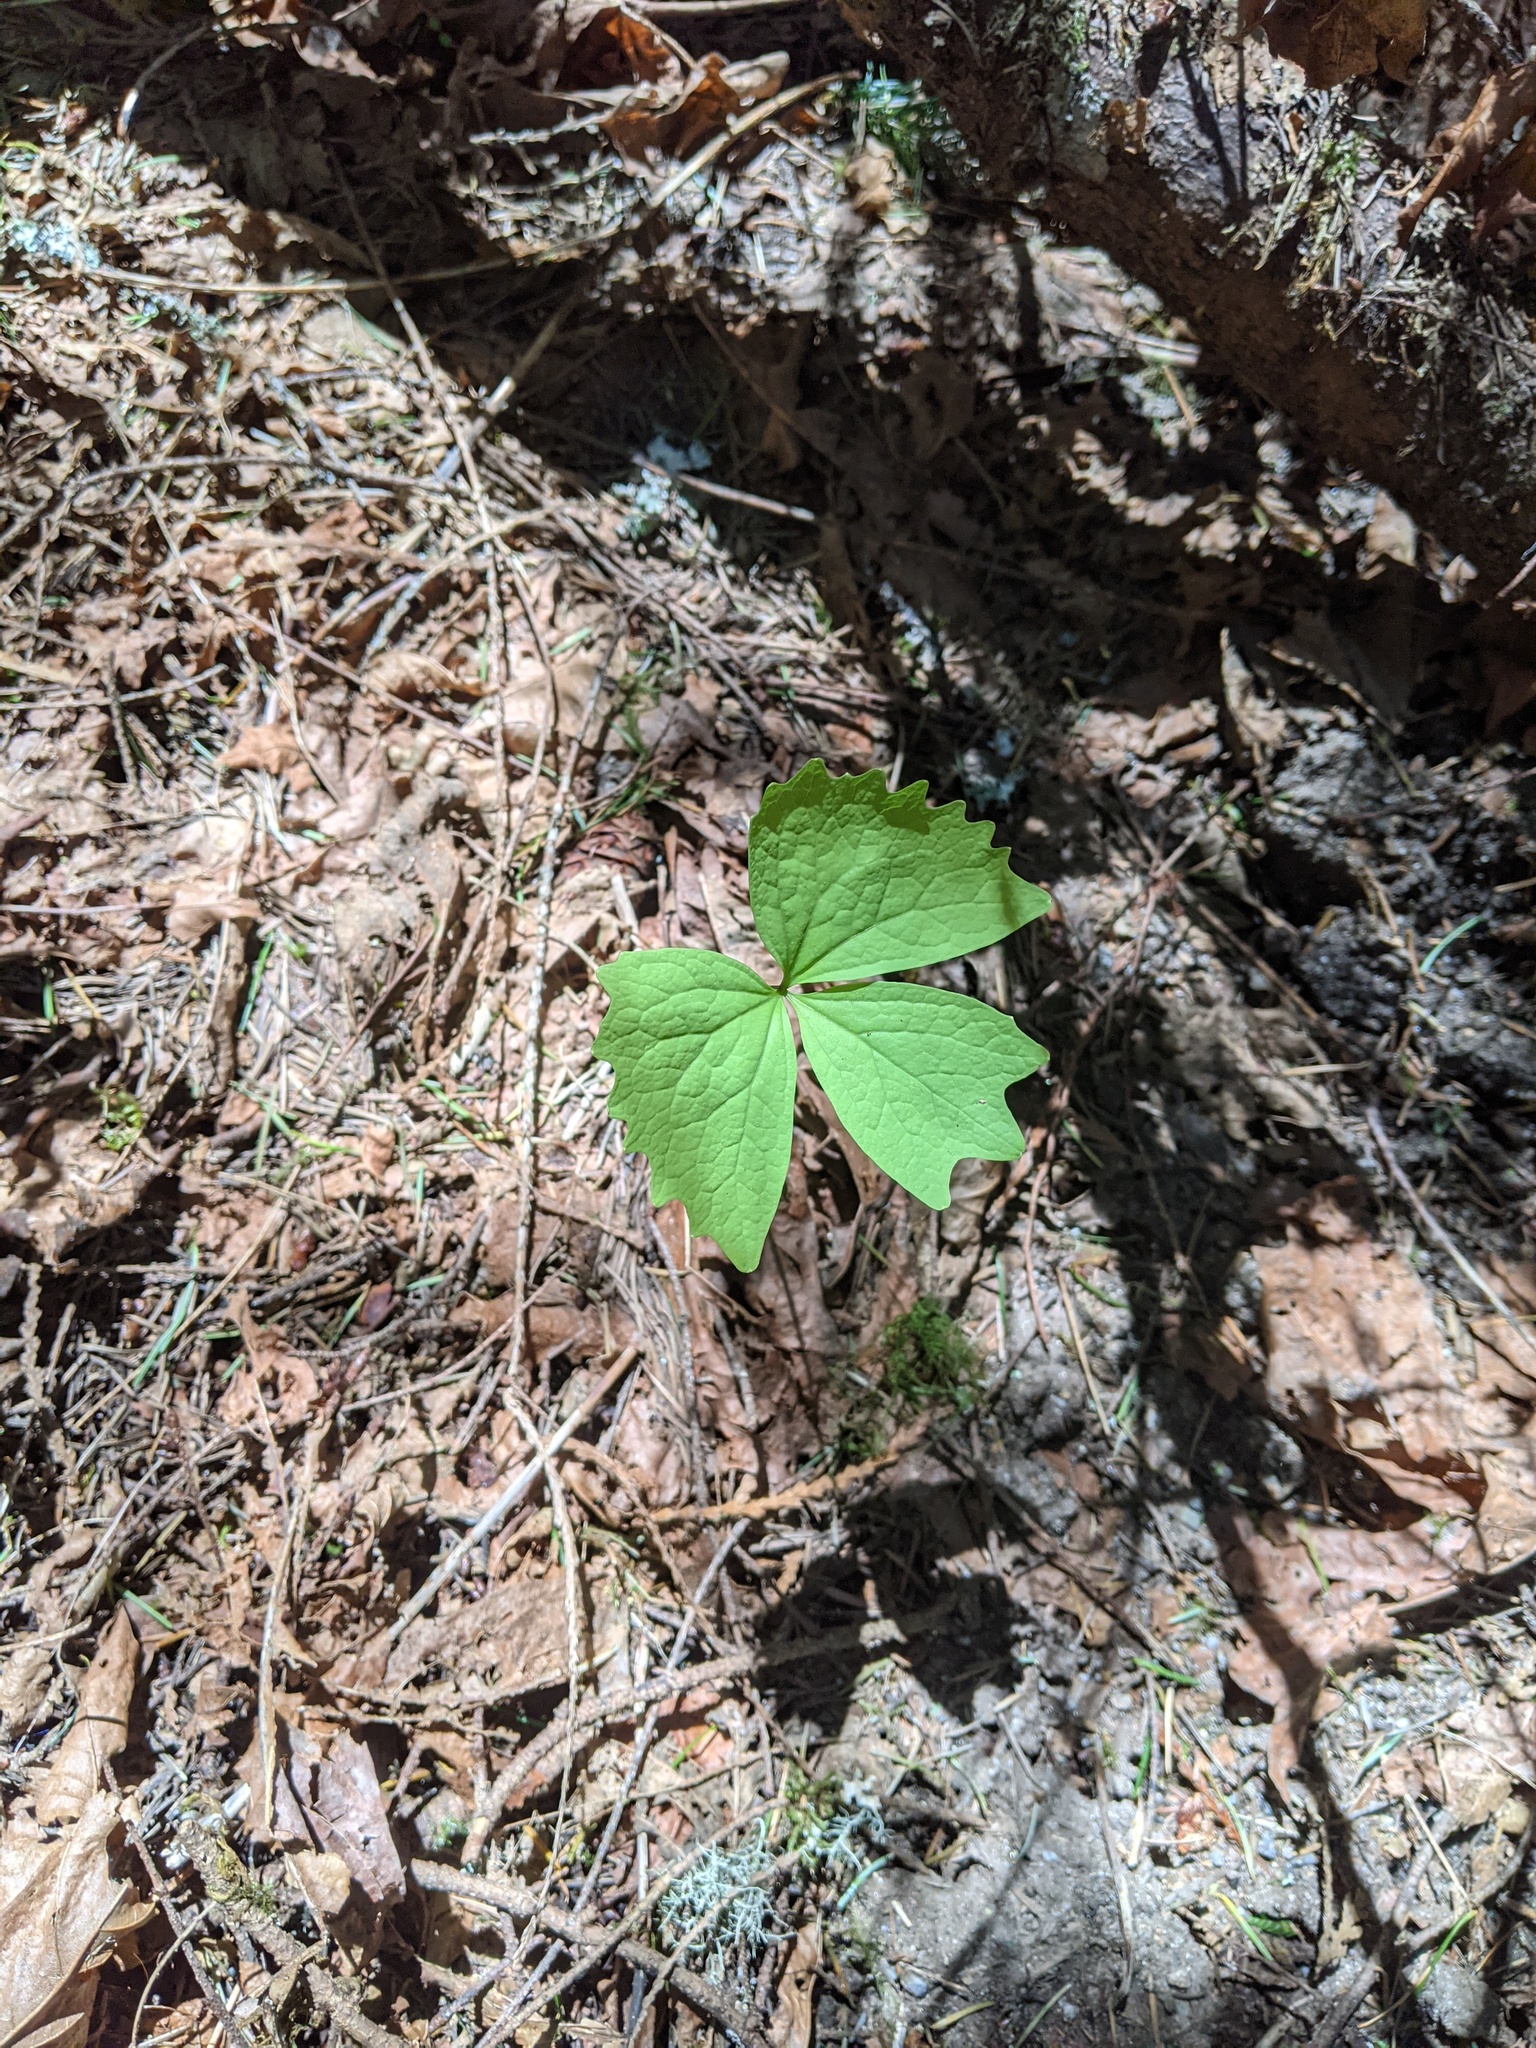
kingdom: Plantae
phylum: Tracheophyta
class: Magnoliopsida
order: Ranunculales
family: Berberidaceae
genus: Achlys
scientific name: Achlys triphylla
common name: Vanilla-leaf
